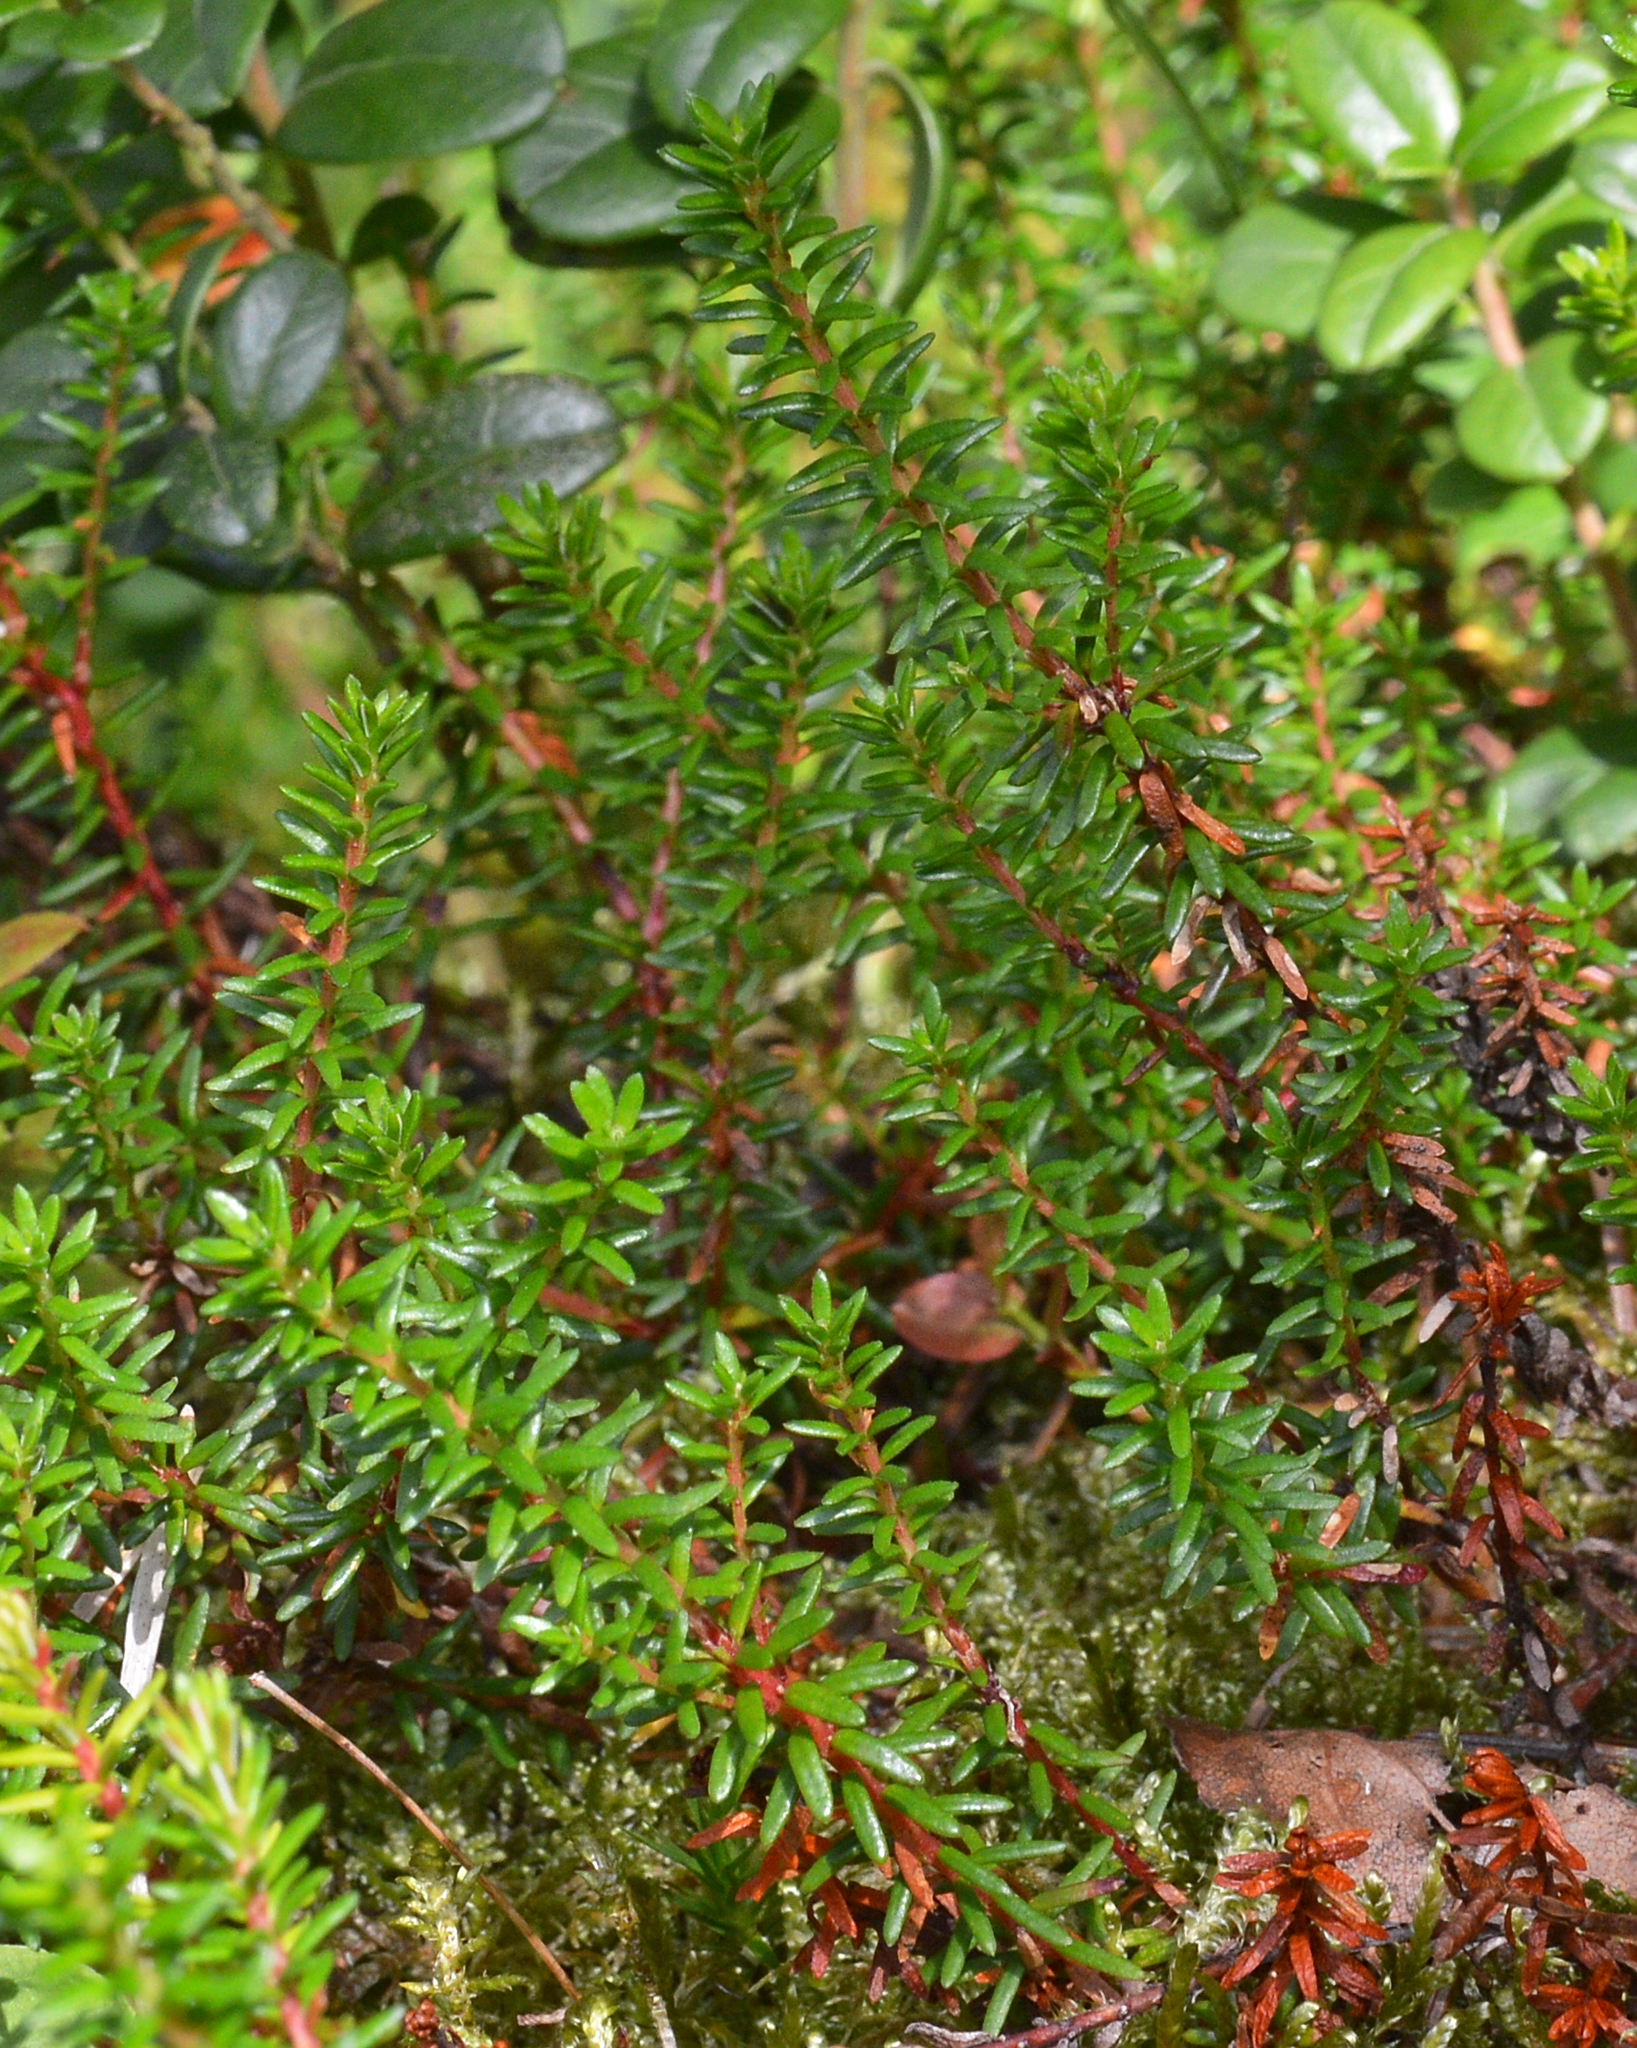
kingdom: Plantae
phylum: Tracheophyta
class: Magnoliopsida
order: Ericales
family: Ericaceae
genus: Empetrum
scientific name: Empetrum nigrum
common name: Black crowberry
